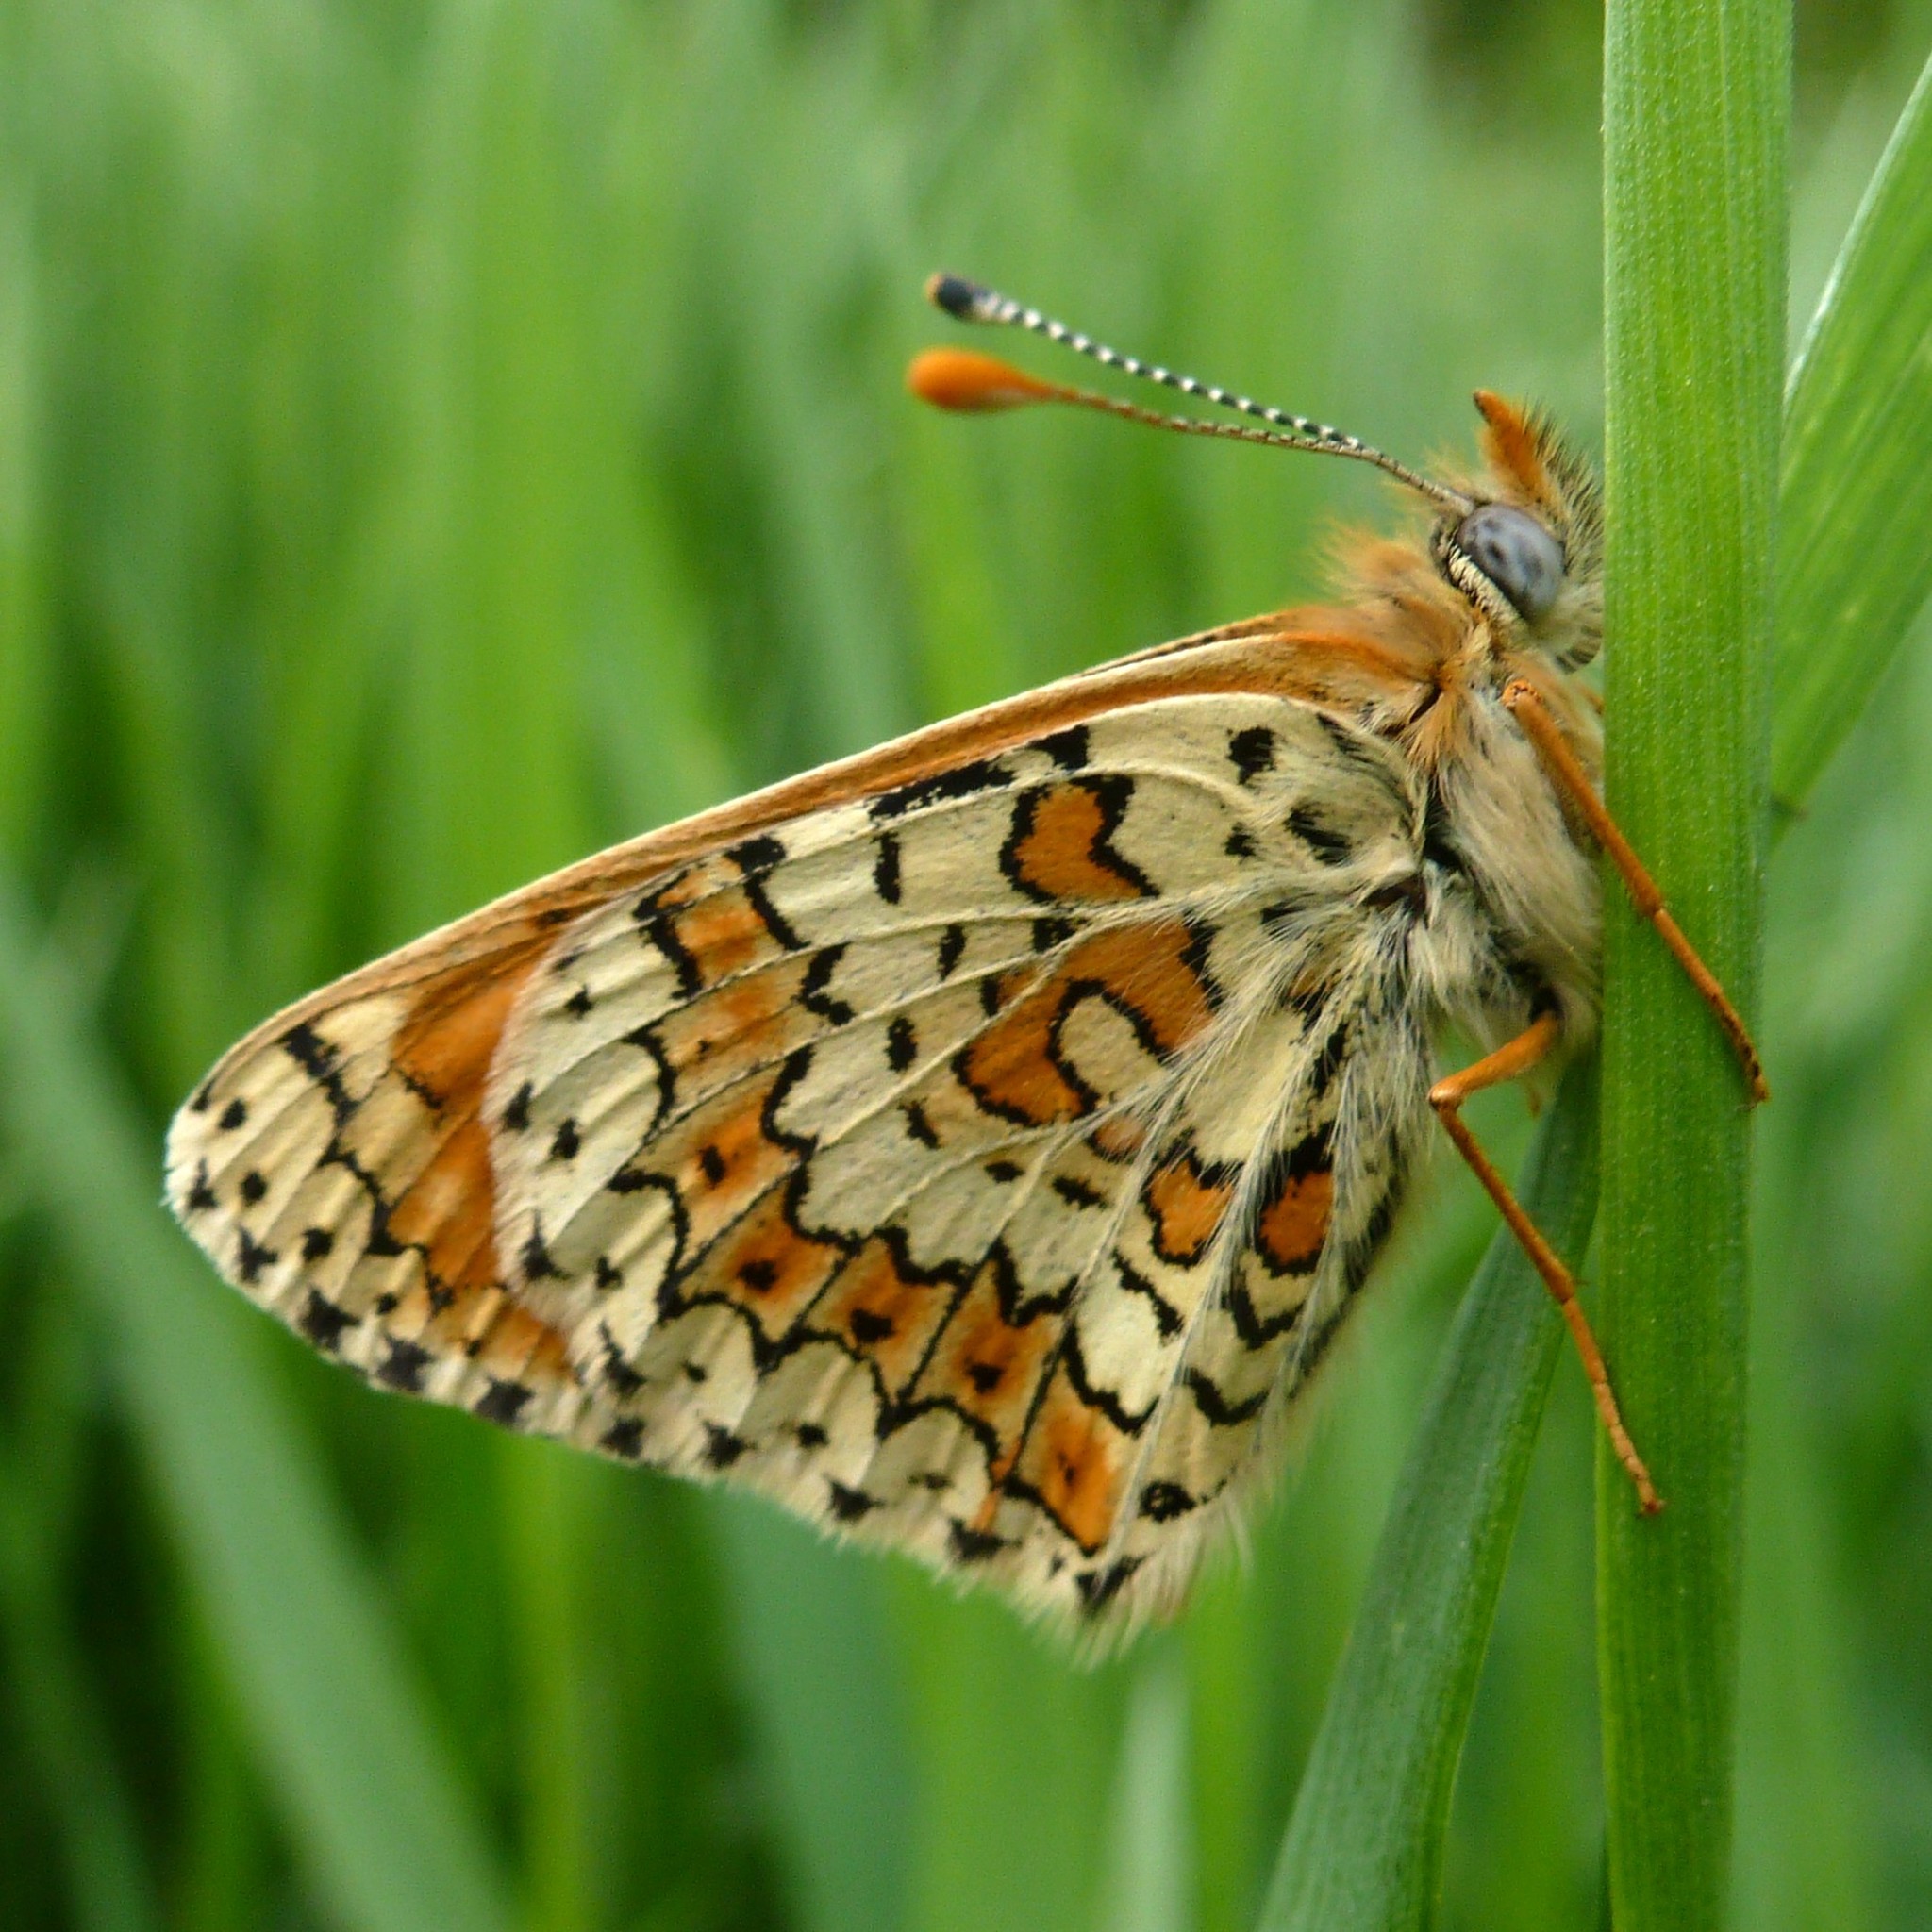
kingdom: Animalia
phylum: Arthropoda
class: Insecta
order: Lepidoptera
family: Nymphalidae
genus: Melitaea
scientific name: Melitaea cinxia
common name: Glanville fritillary
